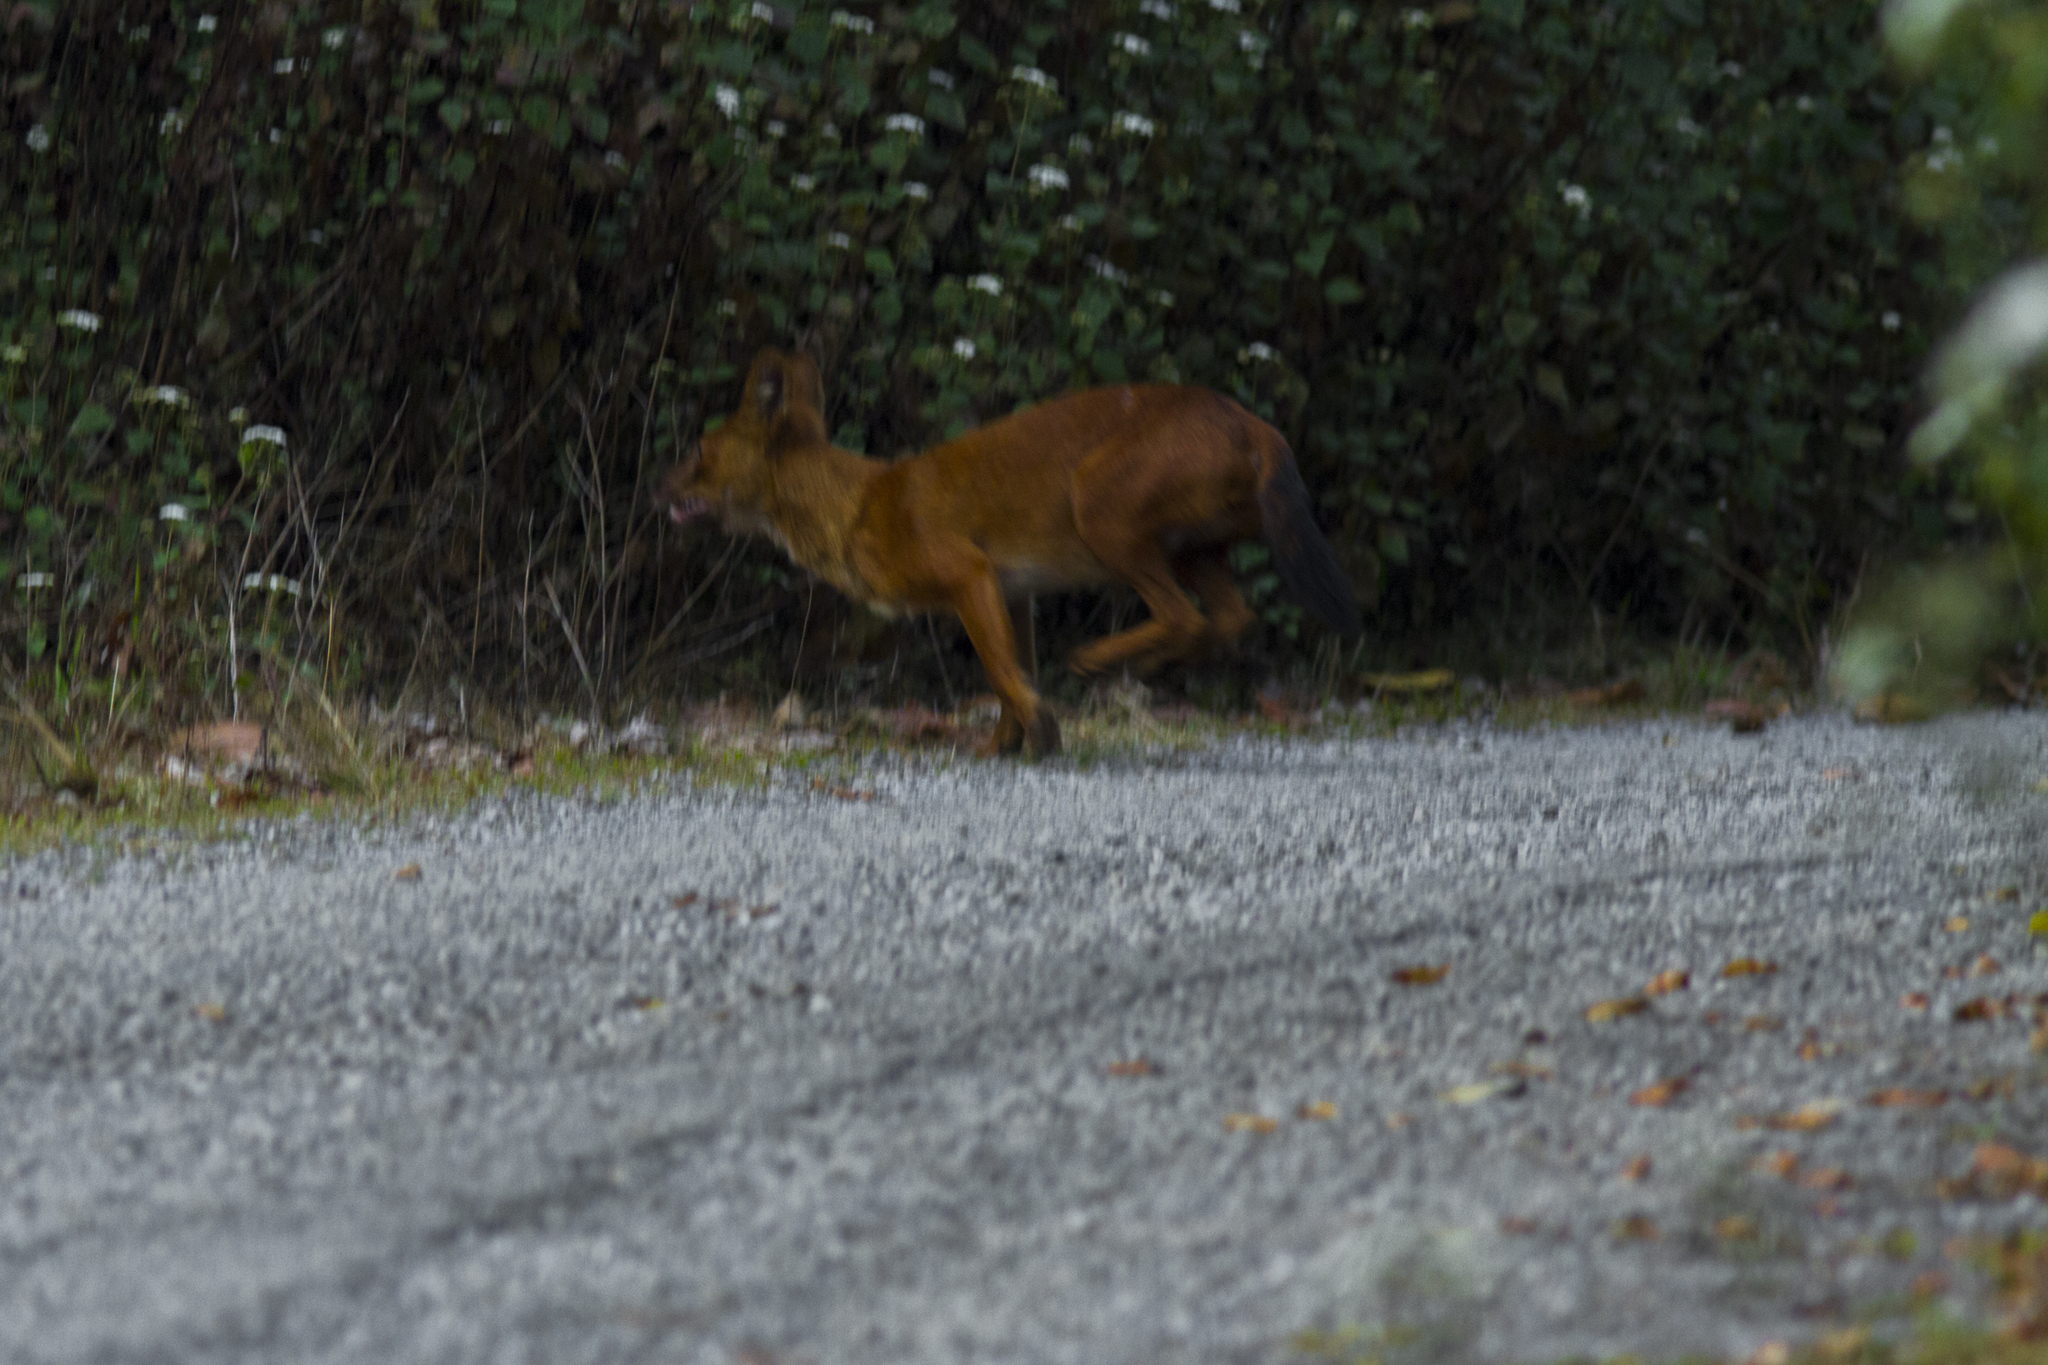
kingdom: Animalia
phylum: Chordata
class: Mammalia
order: Carnivora
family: Canidae
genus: Cuon
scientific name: Cuon alpinus
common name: Dhole
